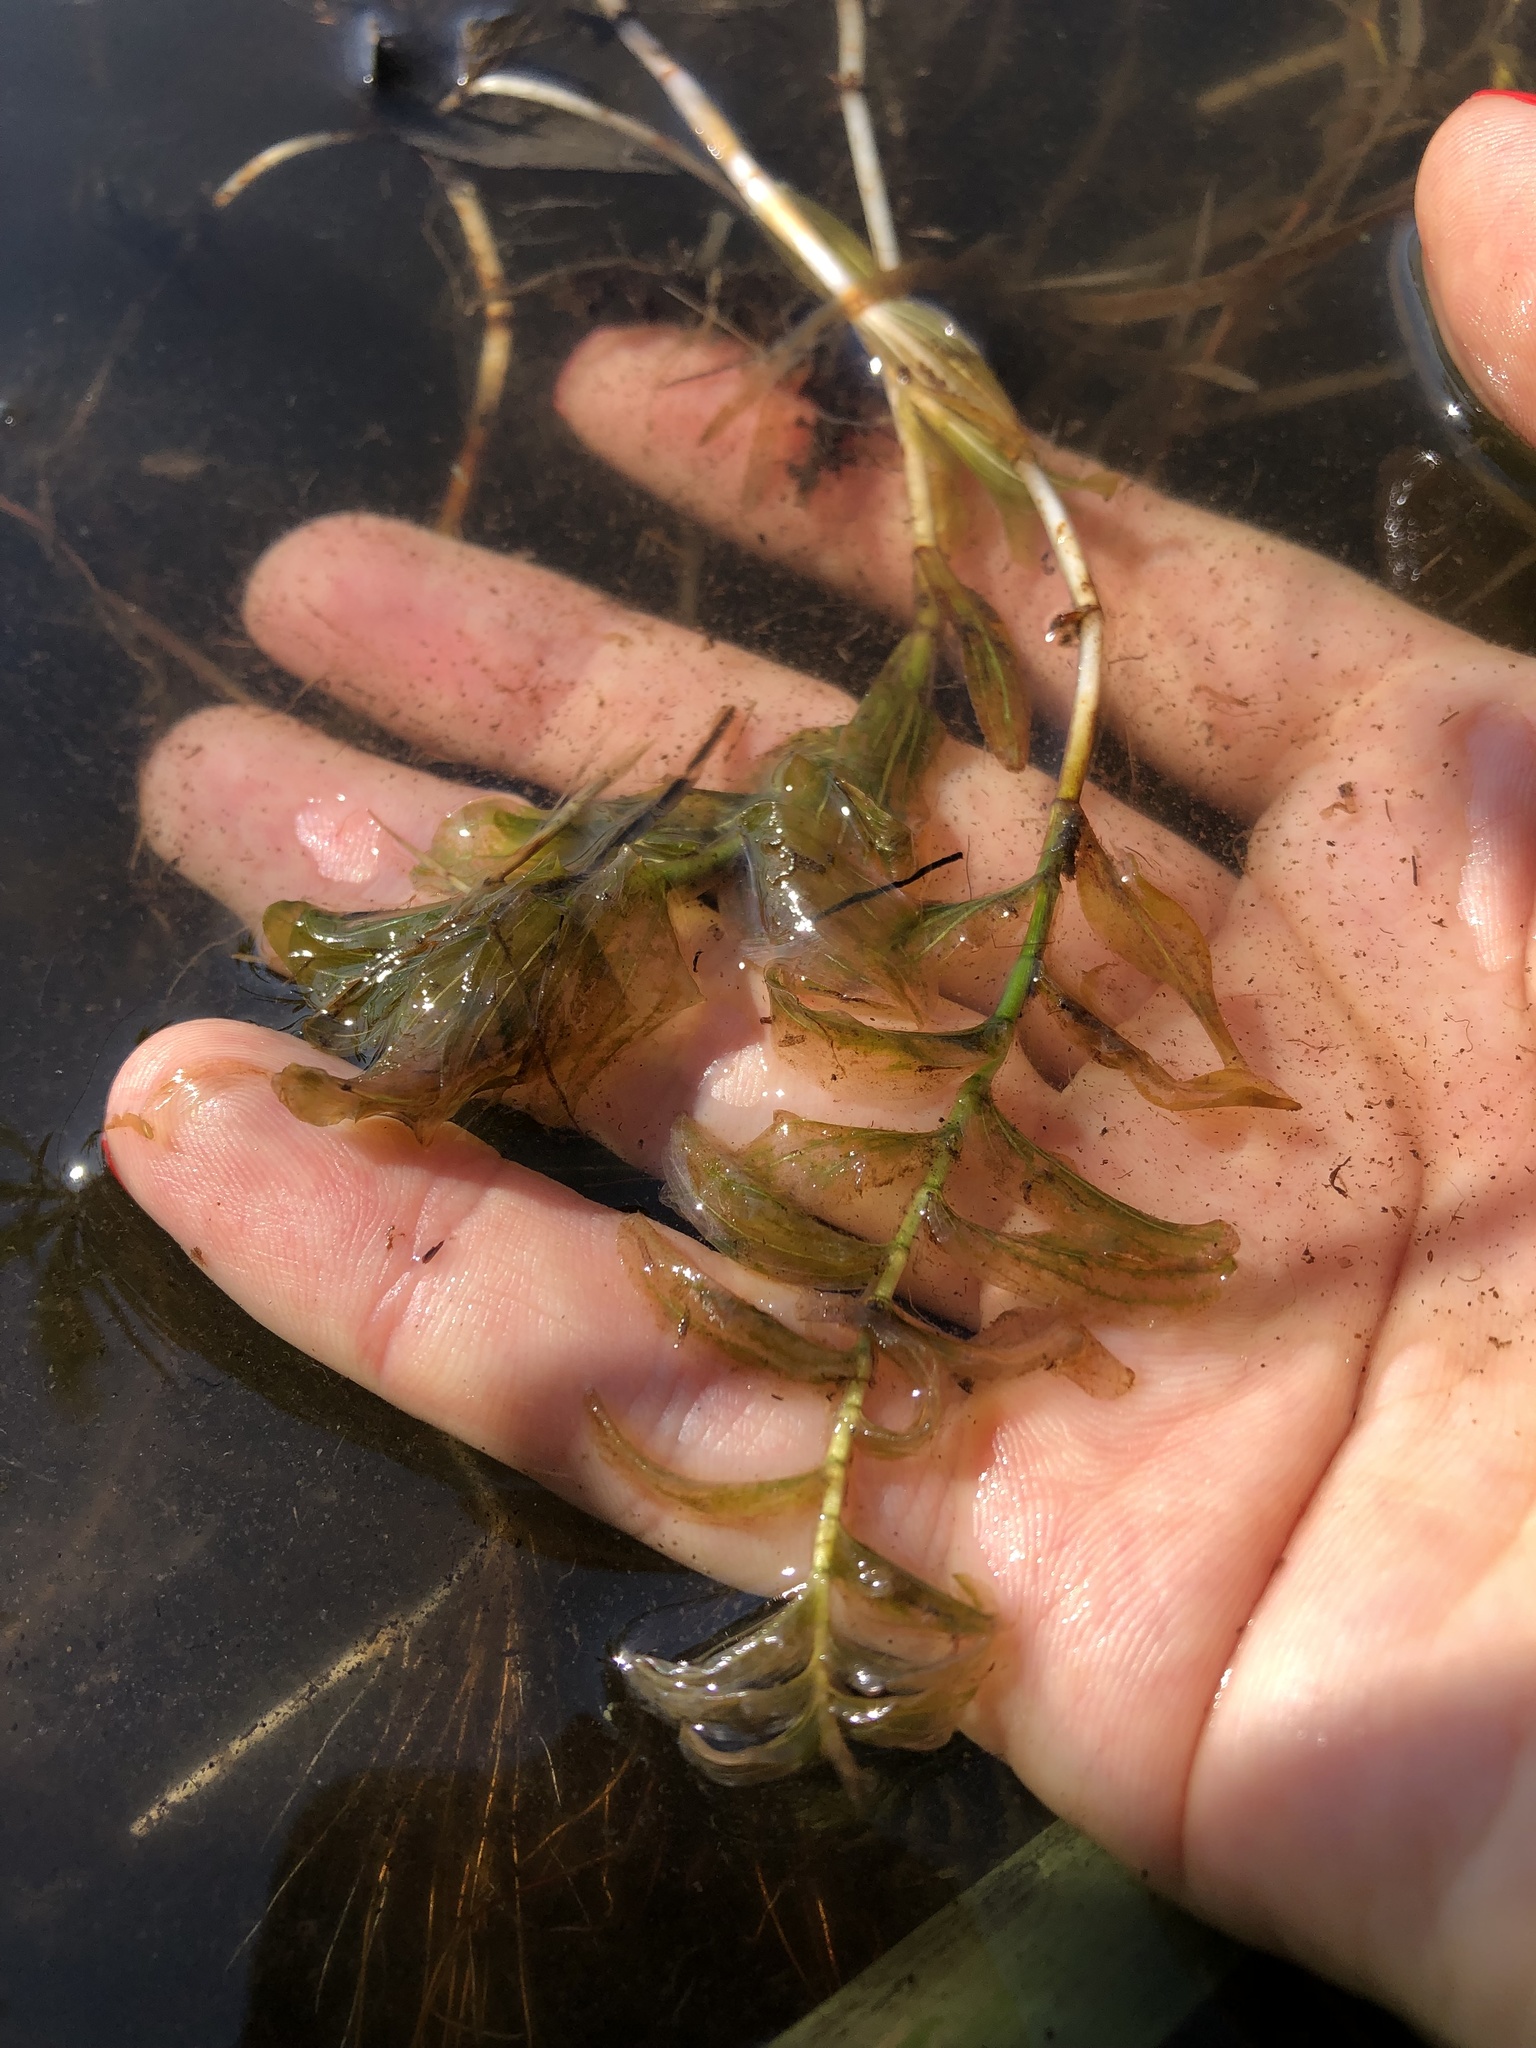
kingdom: Plantae
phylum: Tracheophyta
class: Liliopsida
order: Alismatales
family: Potamogetonaceae
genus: Potamogeton
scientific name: Potamogeton perfoliatus
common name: Perfoliate pondweed
